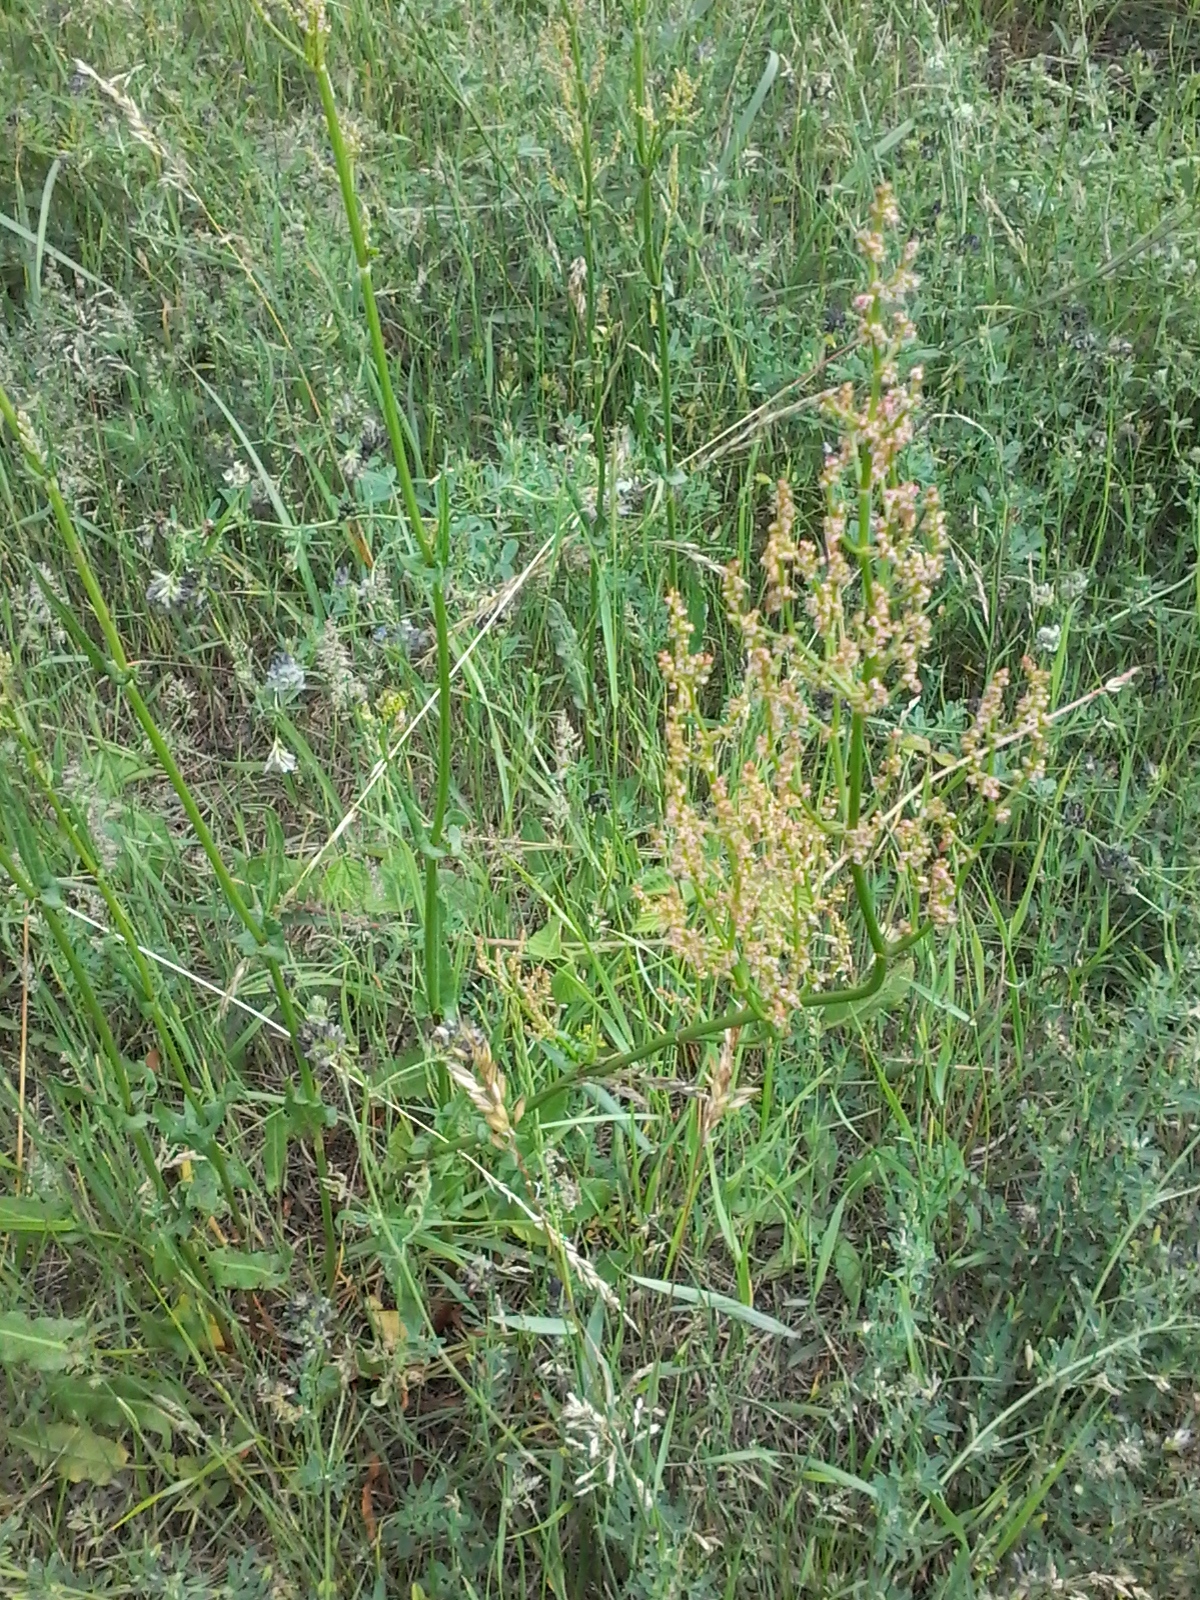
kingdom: Plantae
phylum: Tracheophyta
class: Magnoliopsida
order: Caryophyllales
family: Polygonaceae
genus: Rumex
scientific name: Rumex thyrsiflorus
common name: Garden sorrel
